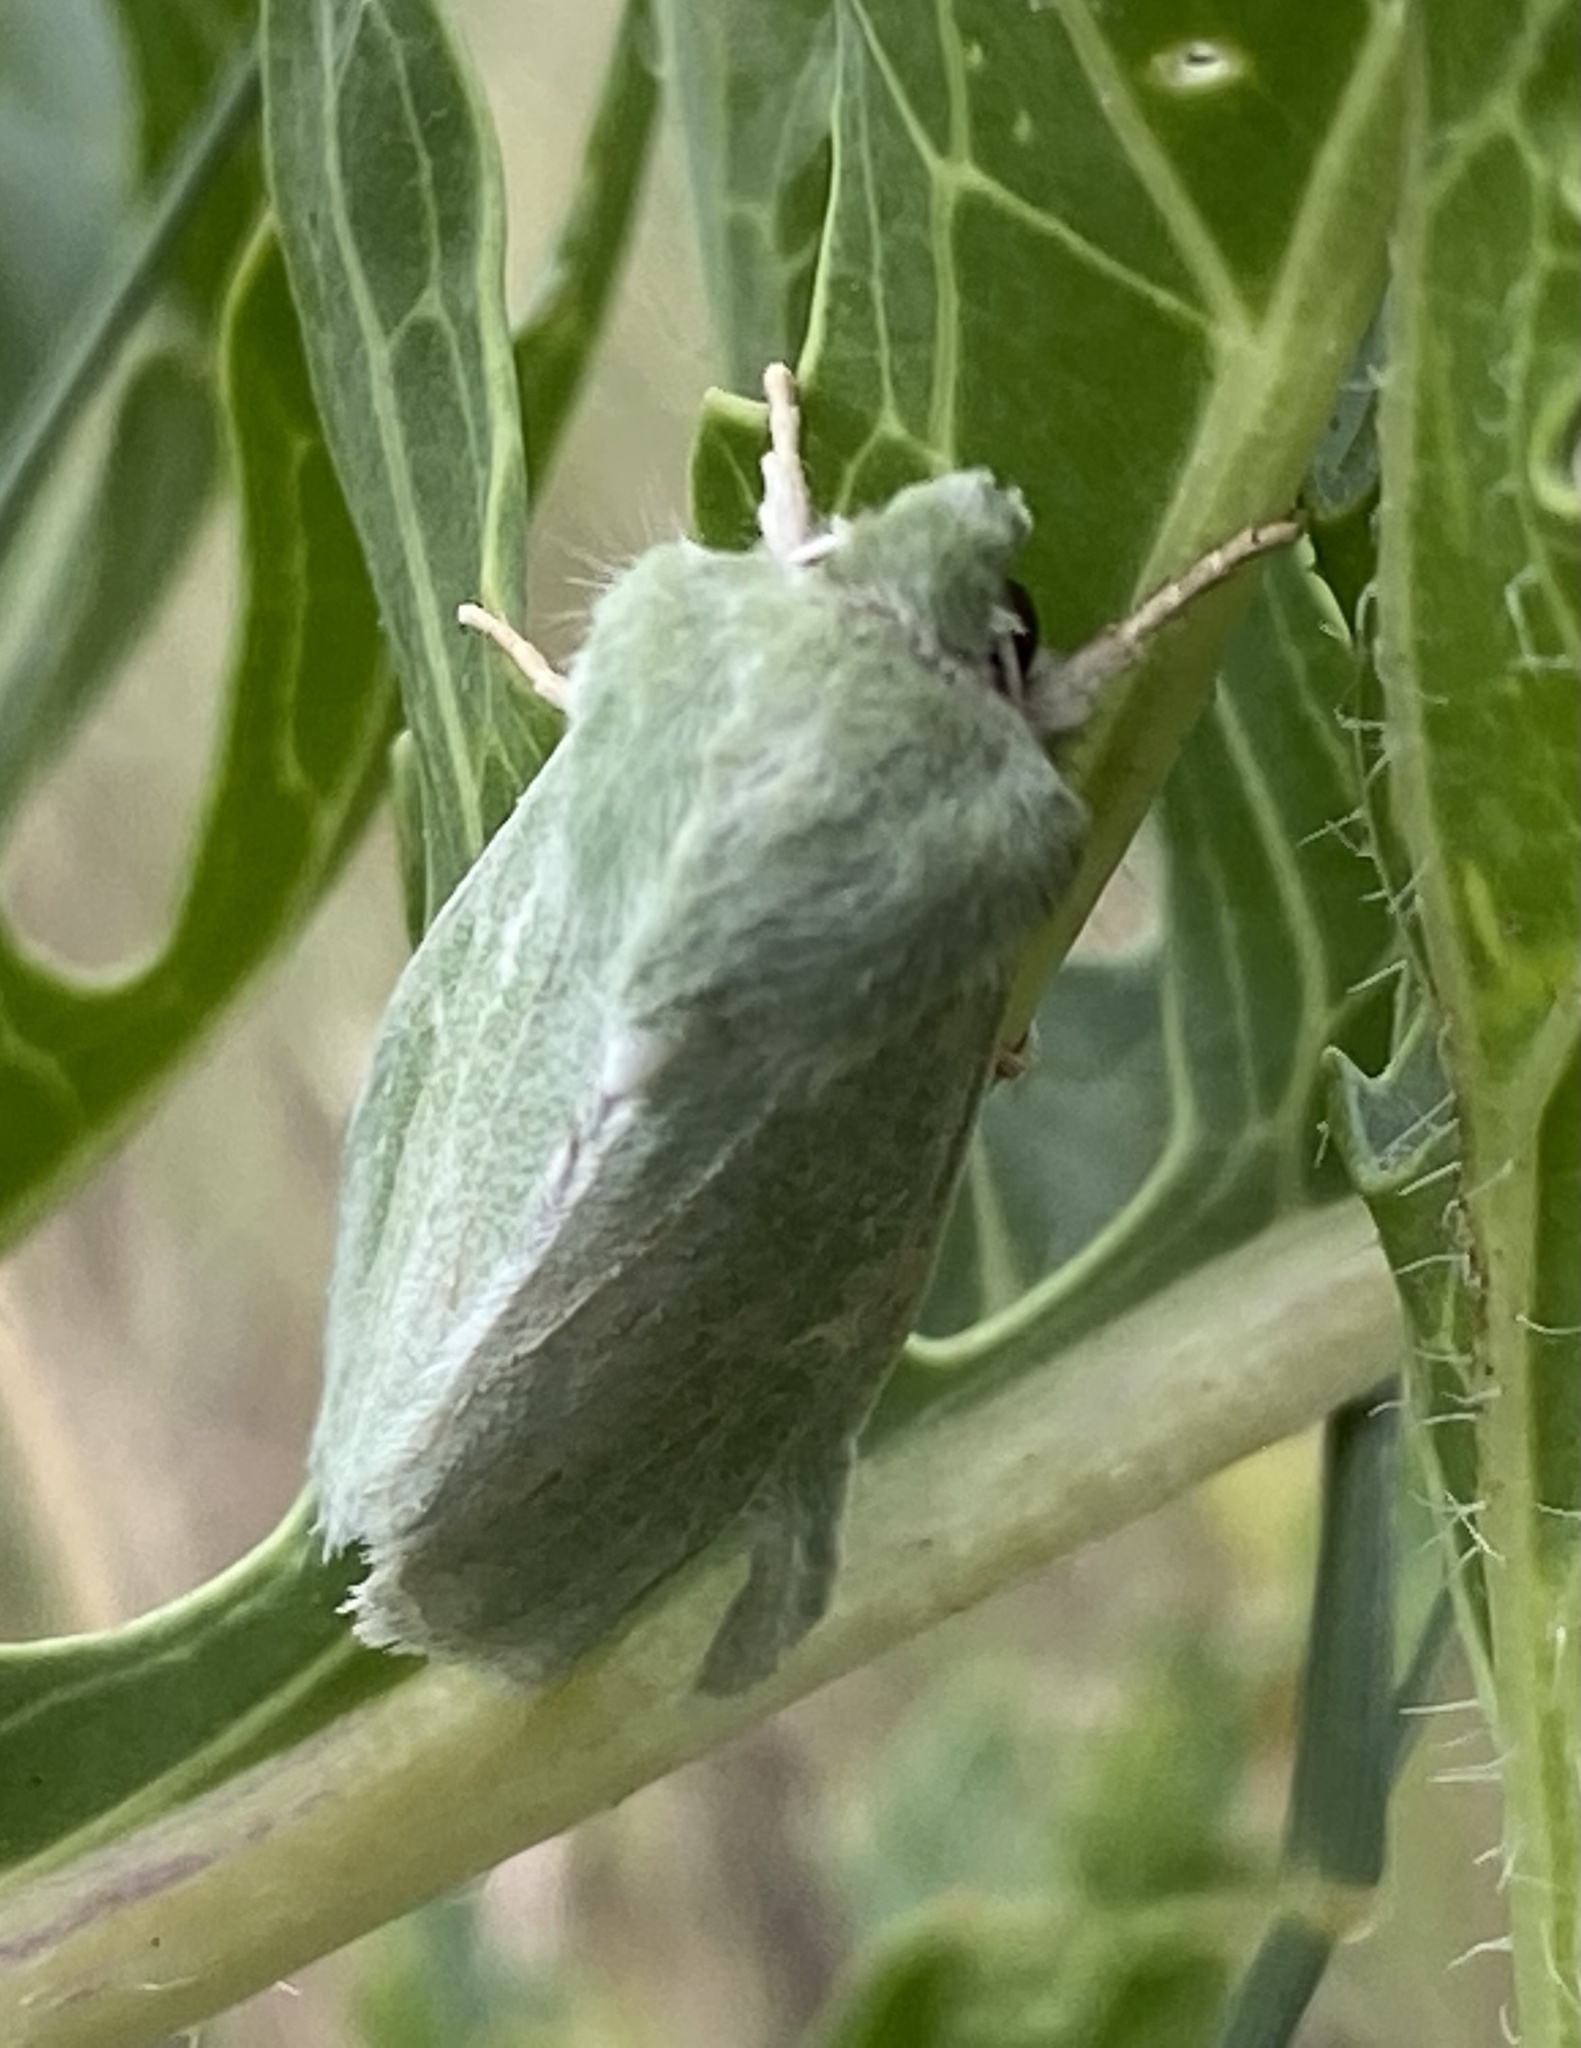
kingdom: Animalia
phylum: Arthropoda
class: Insecta
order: Lepidoptera
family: Noctuidae
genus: Calamia
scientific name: Calamia tridens
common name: Burren green
